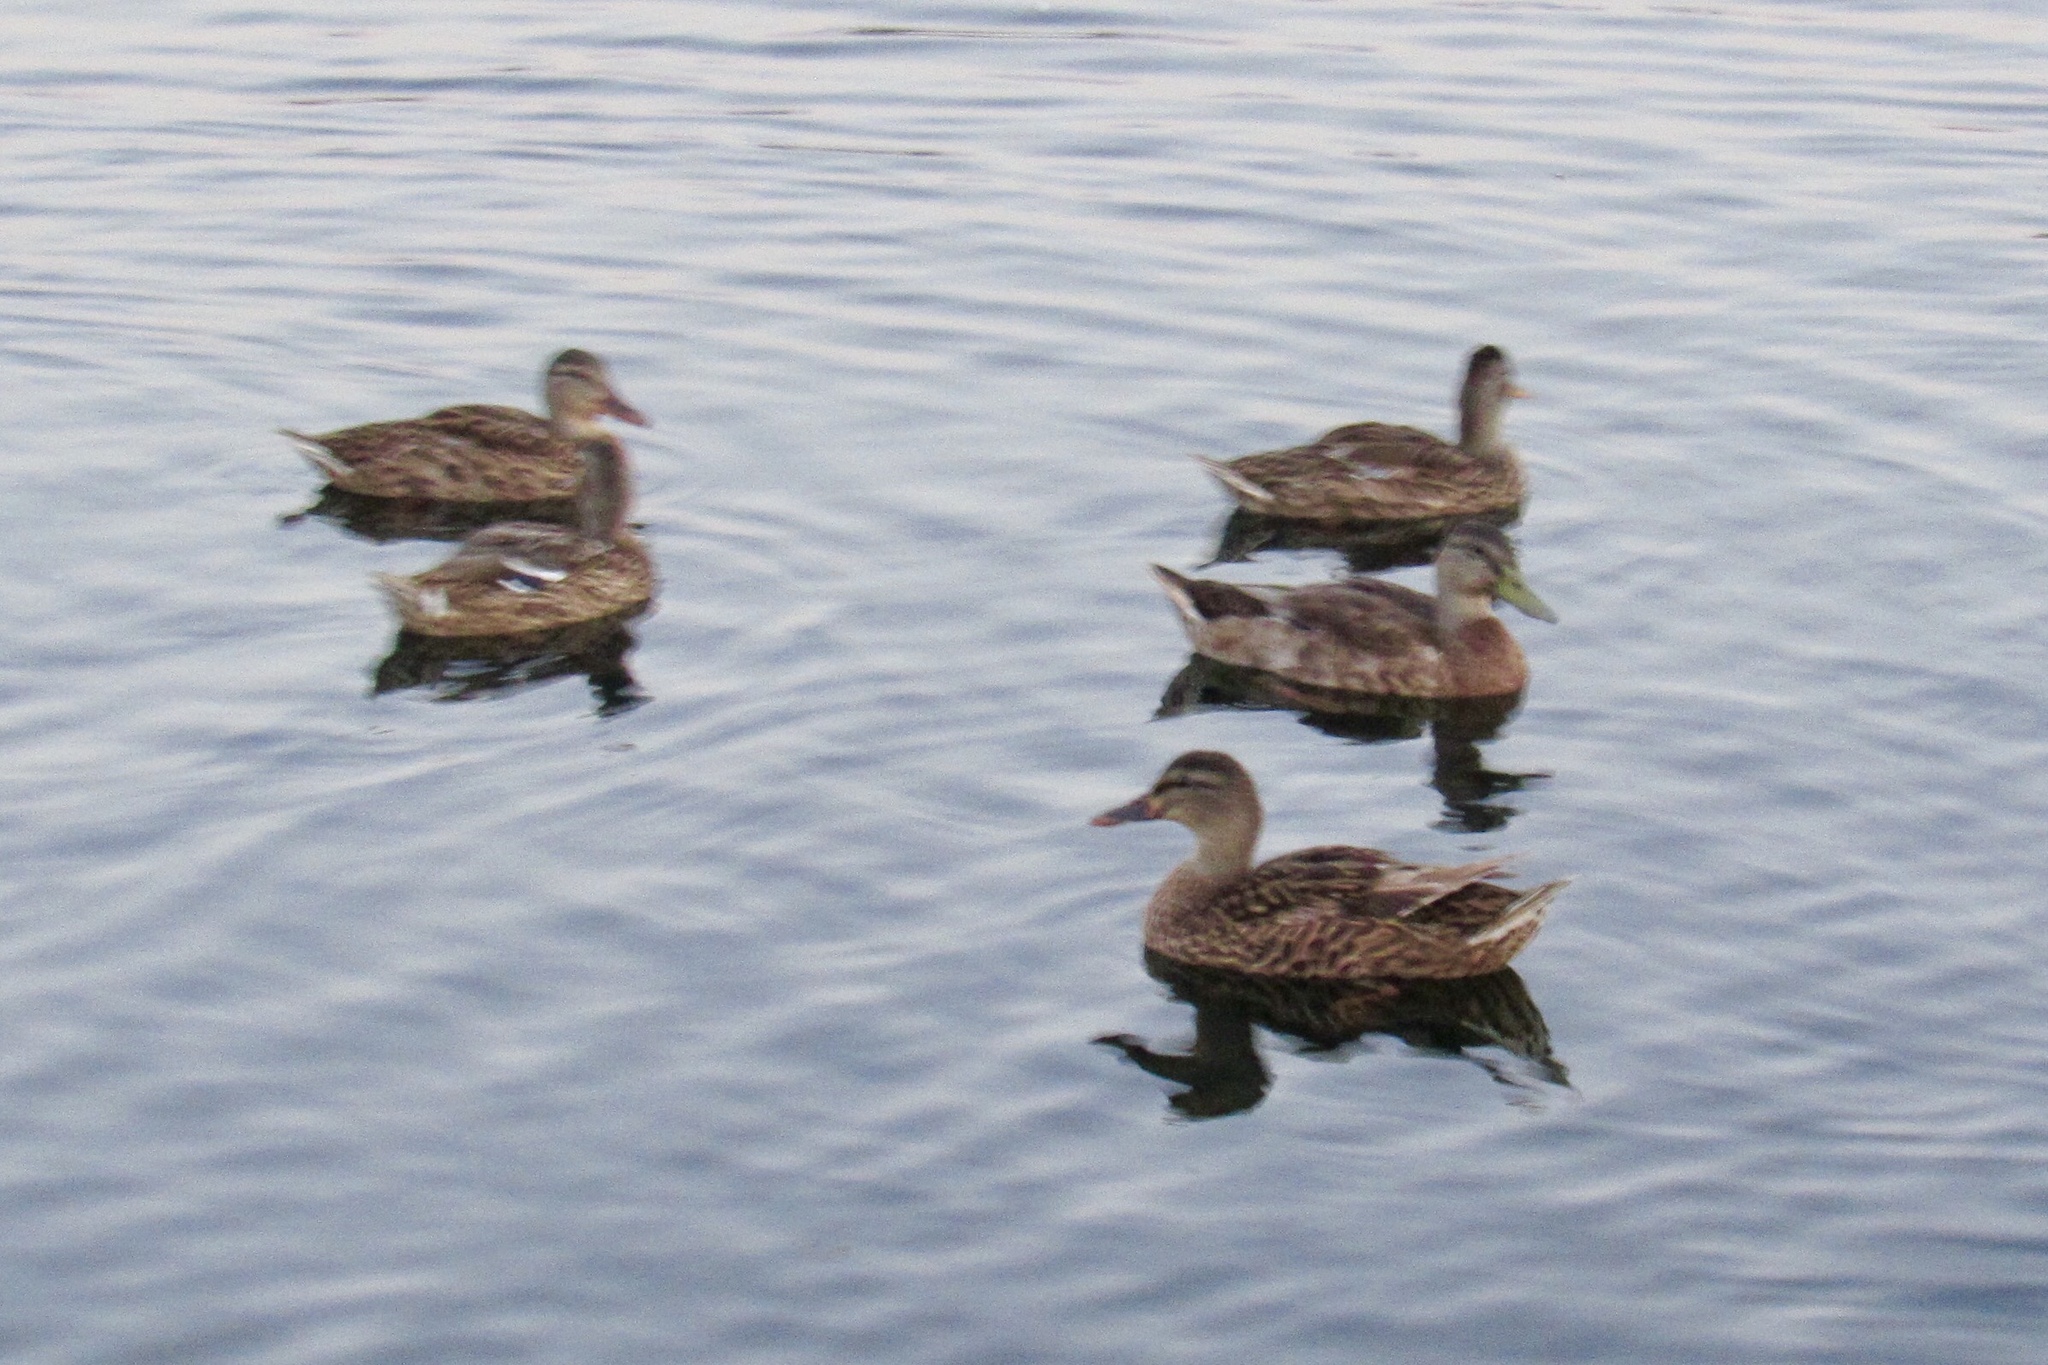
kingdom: Animalia
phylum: Chordata
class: Aves
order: Anseriformes
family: Anatidae
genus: Anas
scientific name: Anas platyrhynchos
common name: Mallard
